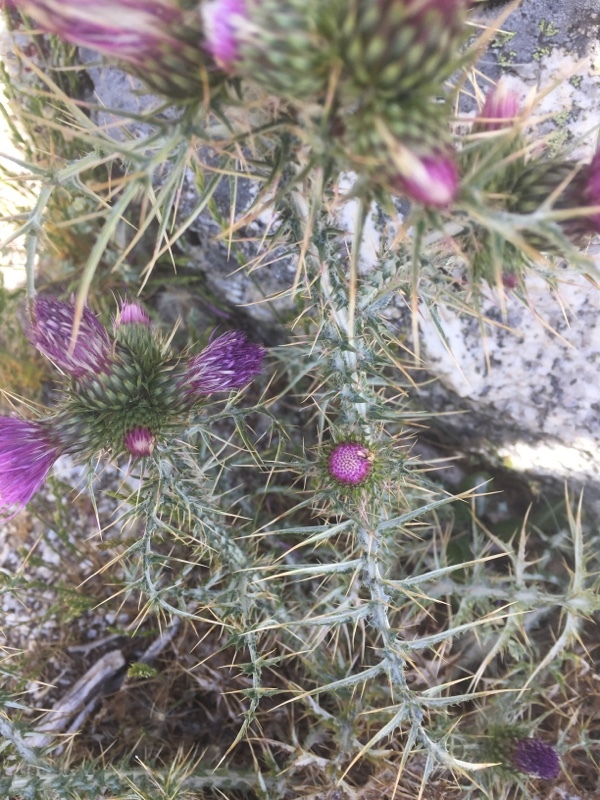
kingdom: Plantae
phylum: Tracheophyta
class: Magnoliopsida
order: Asterales
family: Asteraceae
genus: Carduus
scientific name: Carduus carpetanus
